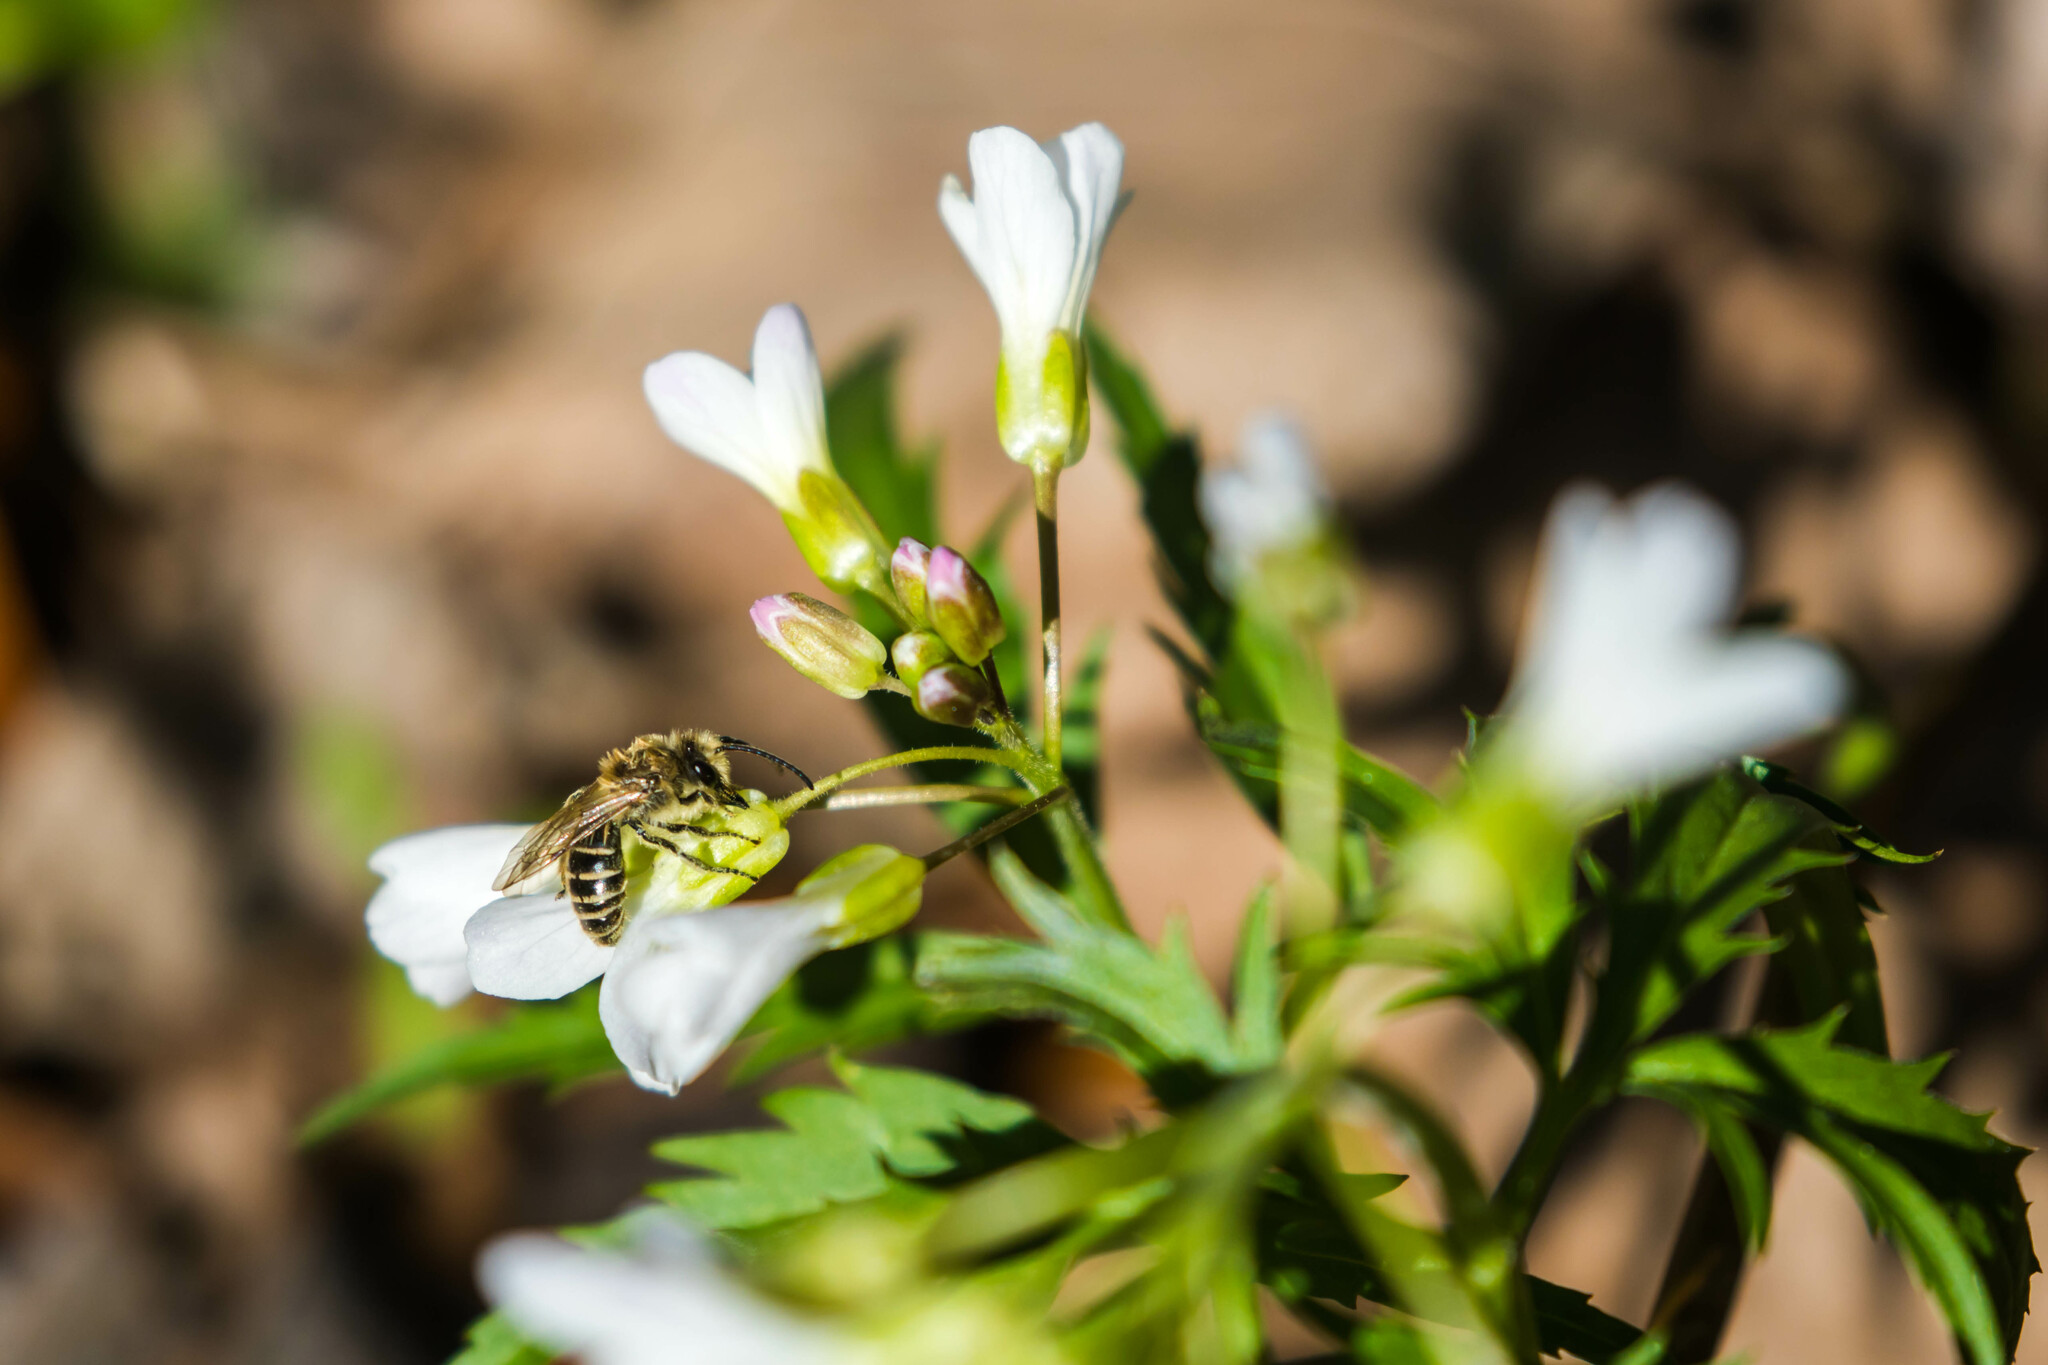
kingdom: Animalia
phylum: Arthropoda
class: Insecta
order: Hymenoptera
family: Colletidae
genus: Colletes
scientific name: Colletes inaequalis
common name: Unequal cellophane bee
